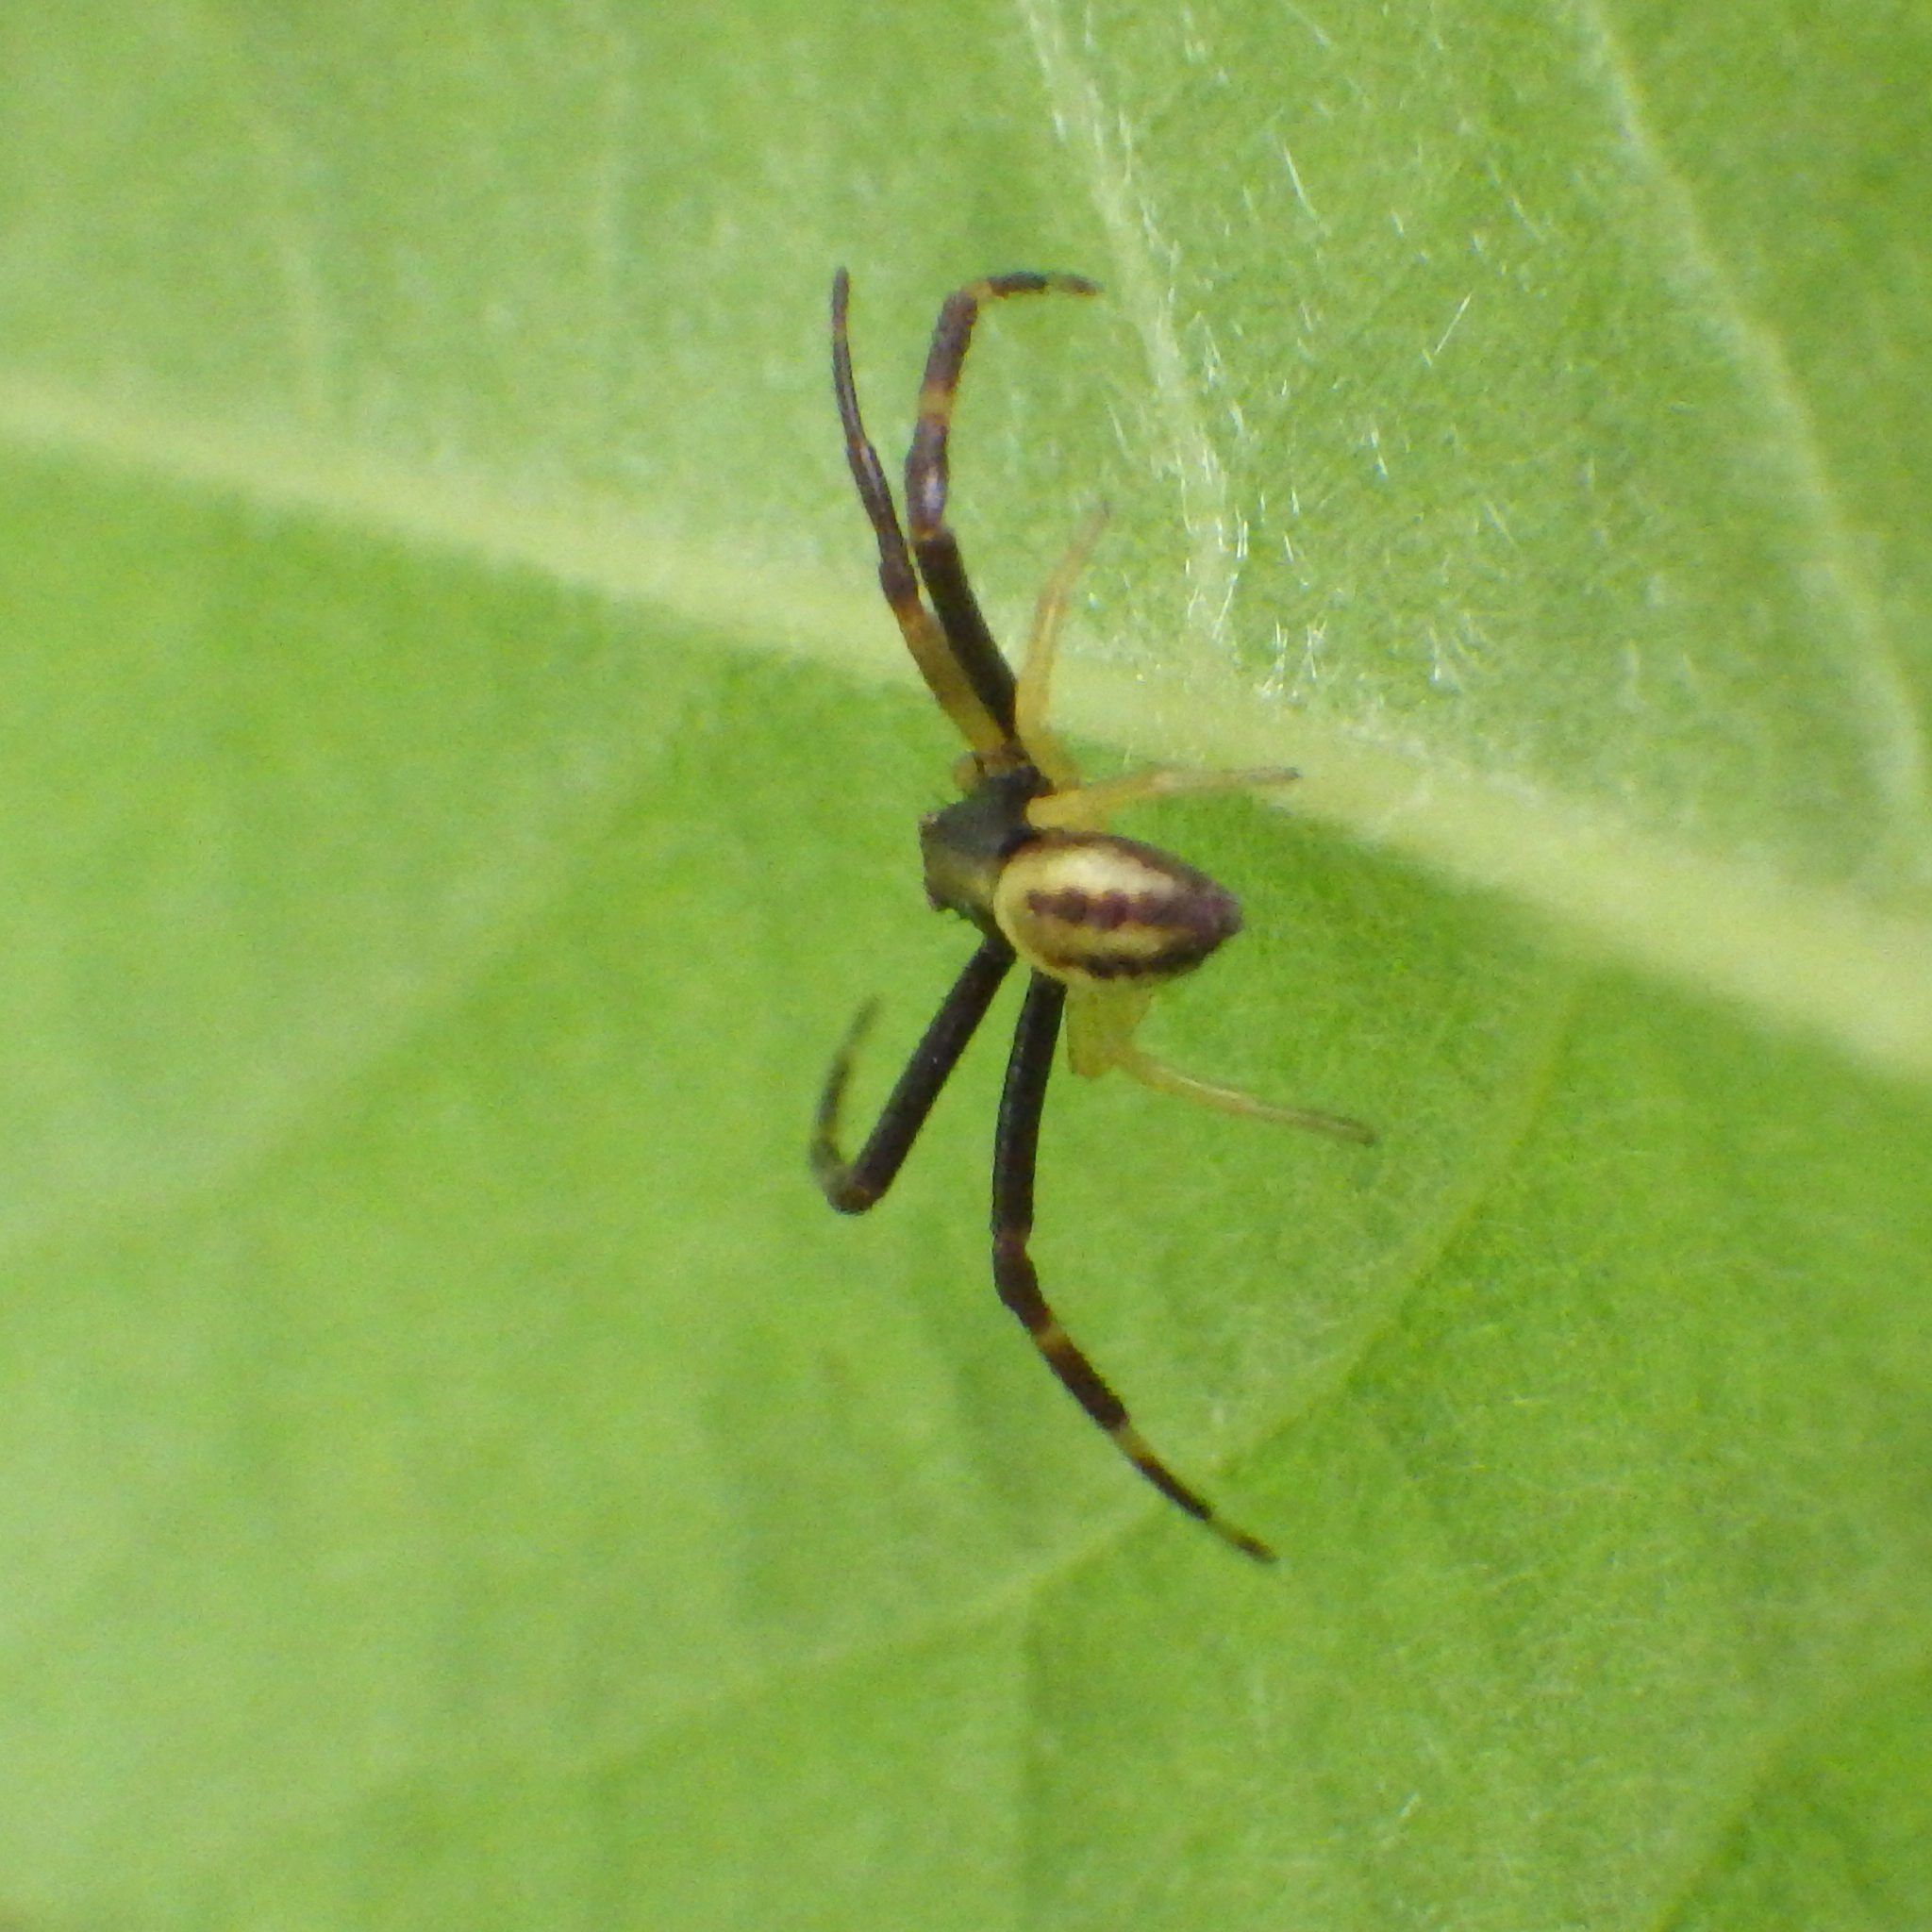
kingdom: Animalia
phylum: Arthropoda
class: Arachnida
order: Araneae
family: Thomisidae
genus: Misumena
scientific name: Misumena vatia
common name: Goldenrod crab spider
